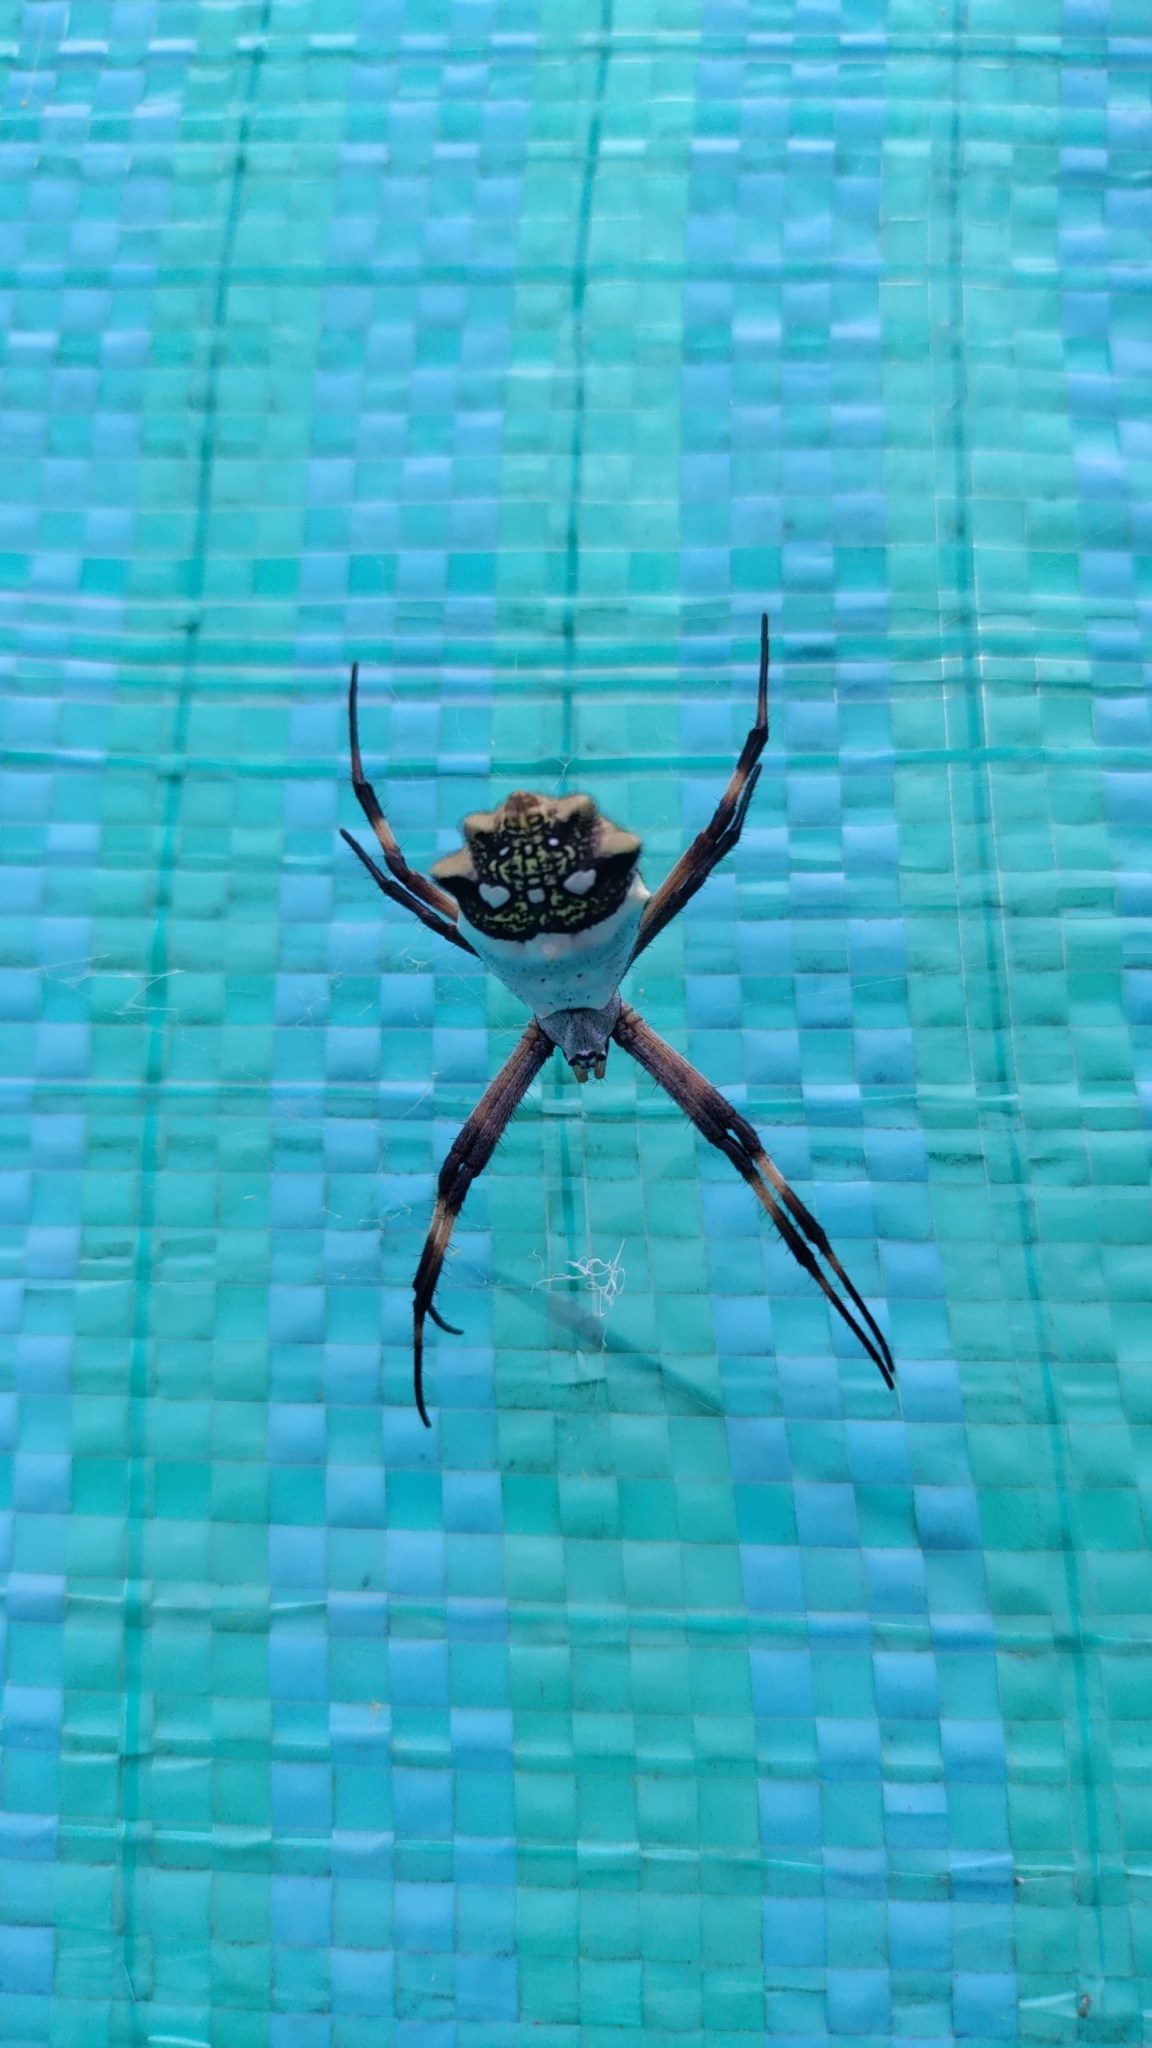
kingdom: Animalia
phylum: Arthropoda
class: Arachnida
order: Araneae
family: Araneidae
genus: Argiope
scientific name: Argiope argentata
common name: Orb weavers
